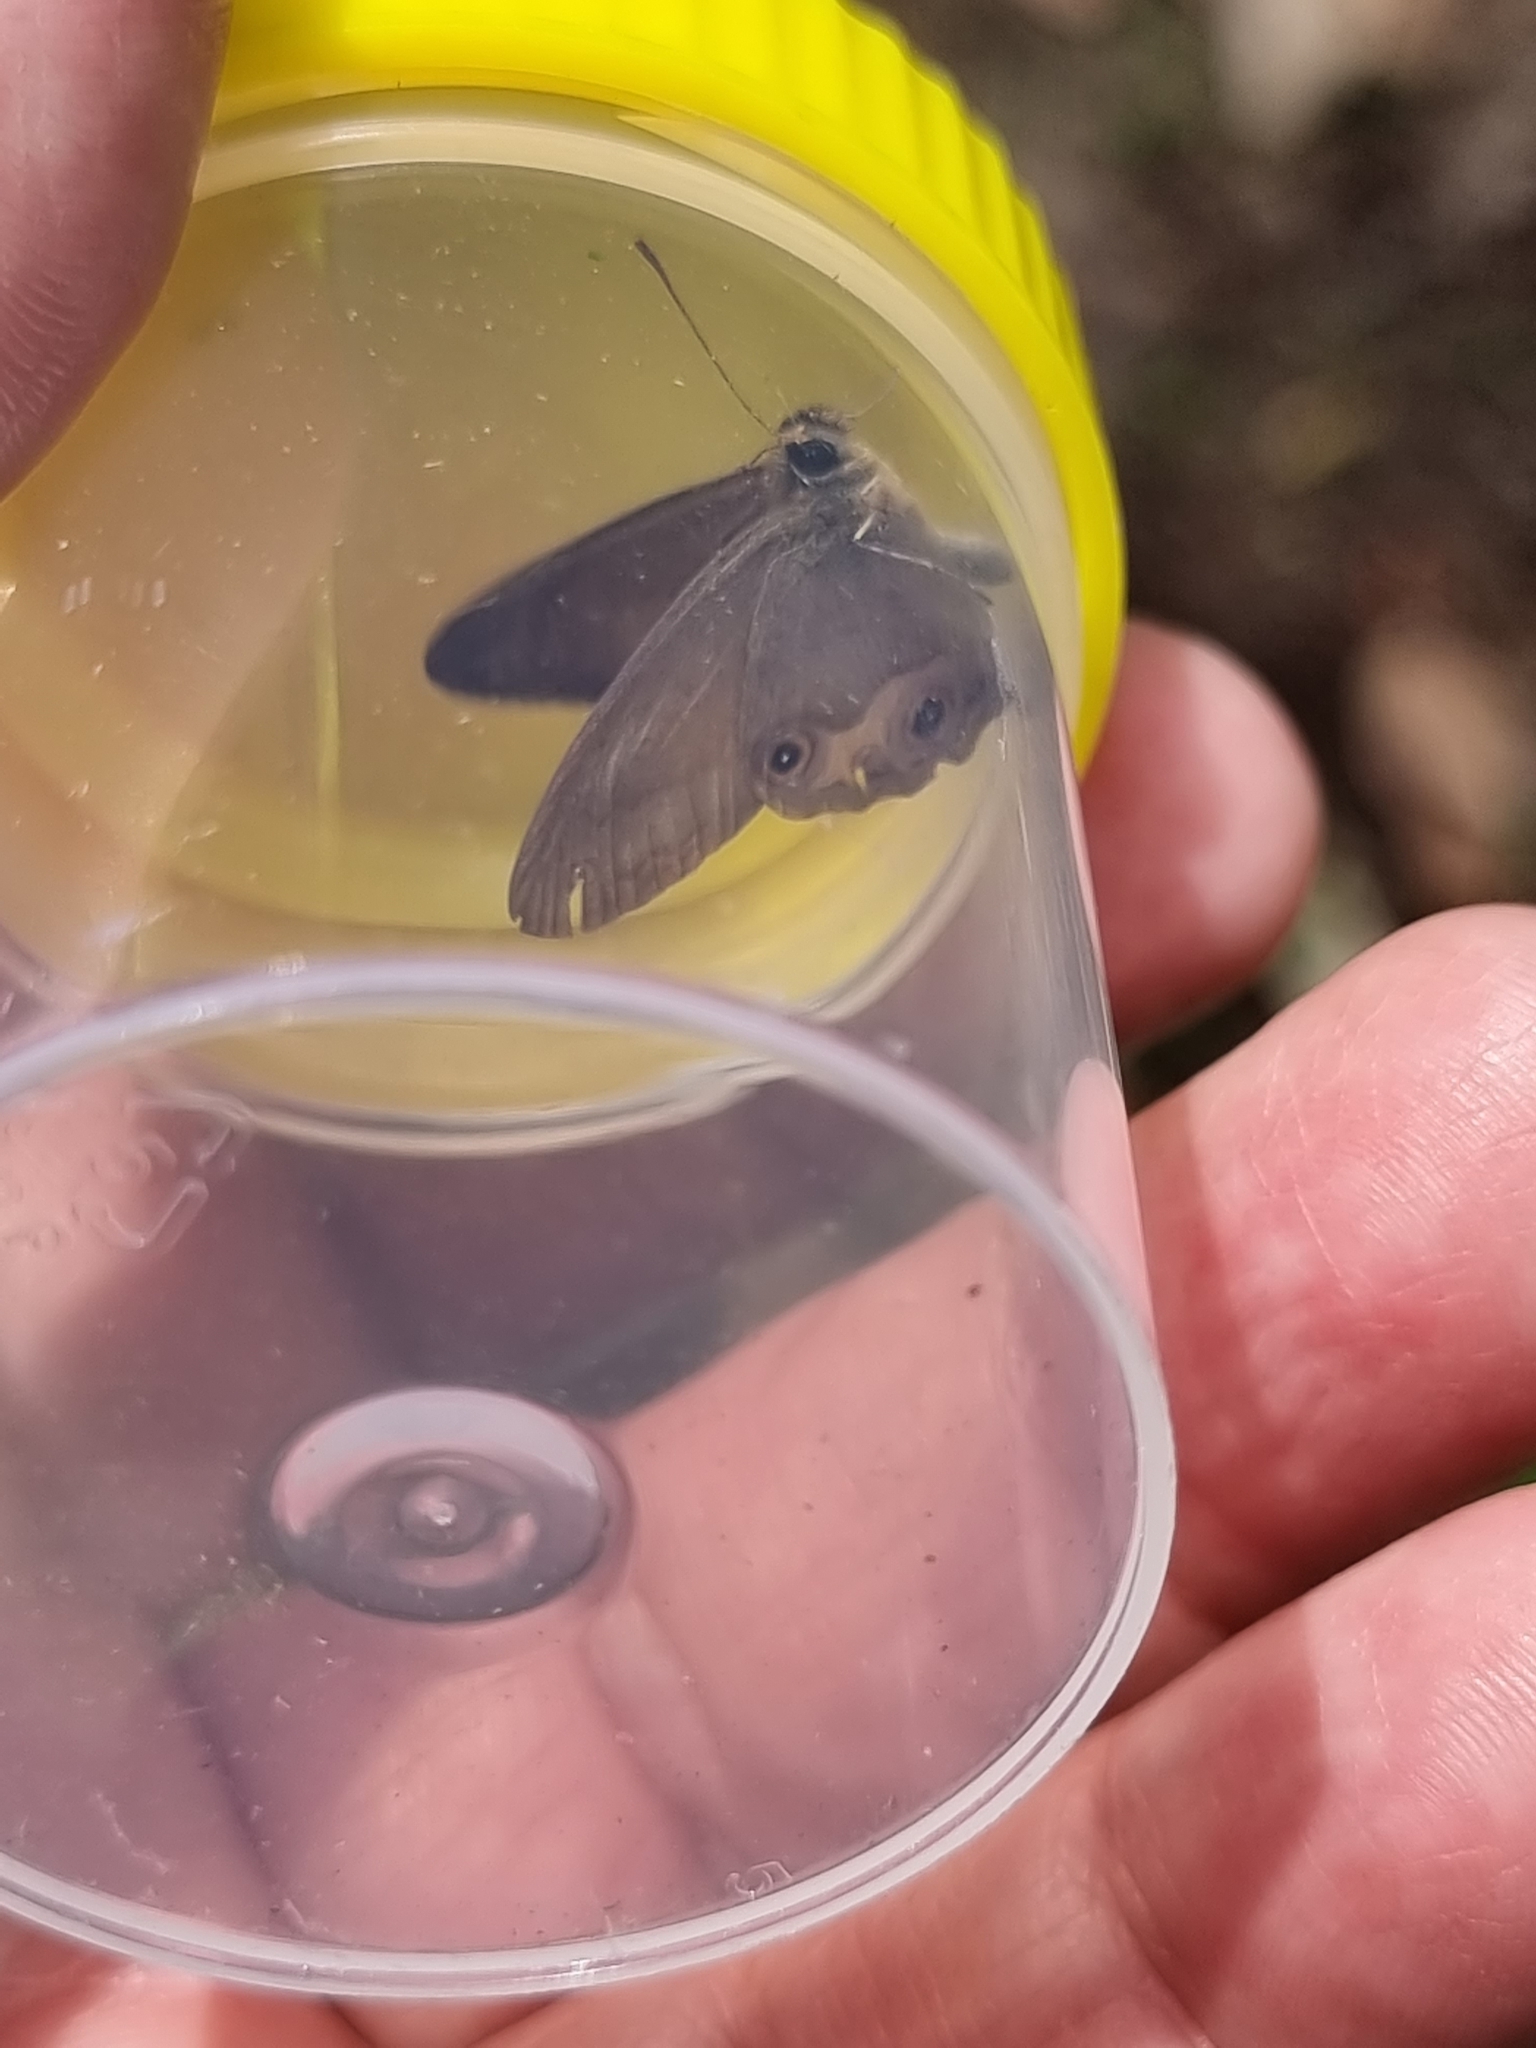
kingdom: Animalia
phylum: Arthropoda
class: Insecta
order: Lepidoptera
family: Nymphalidae
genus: Hypocysta
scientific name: Hypocysta metirius
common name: Brown ringlet
